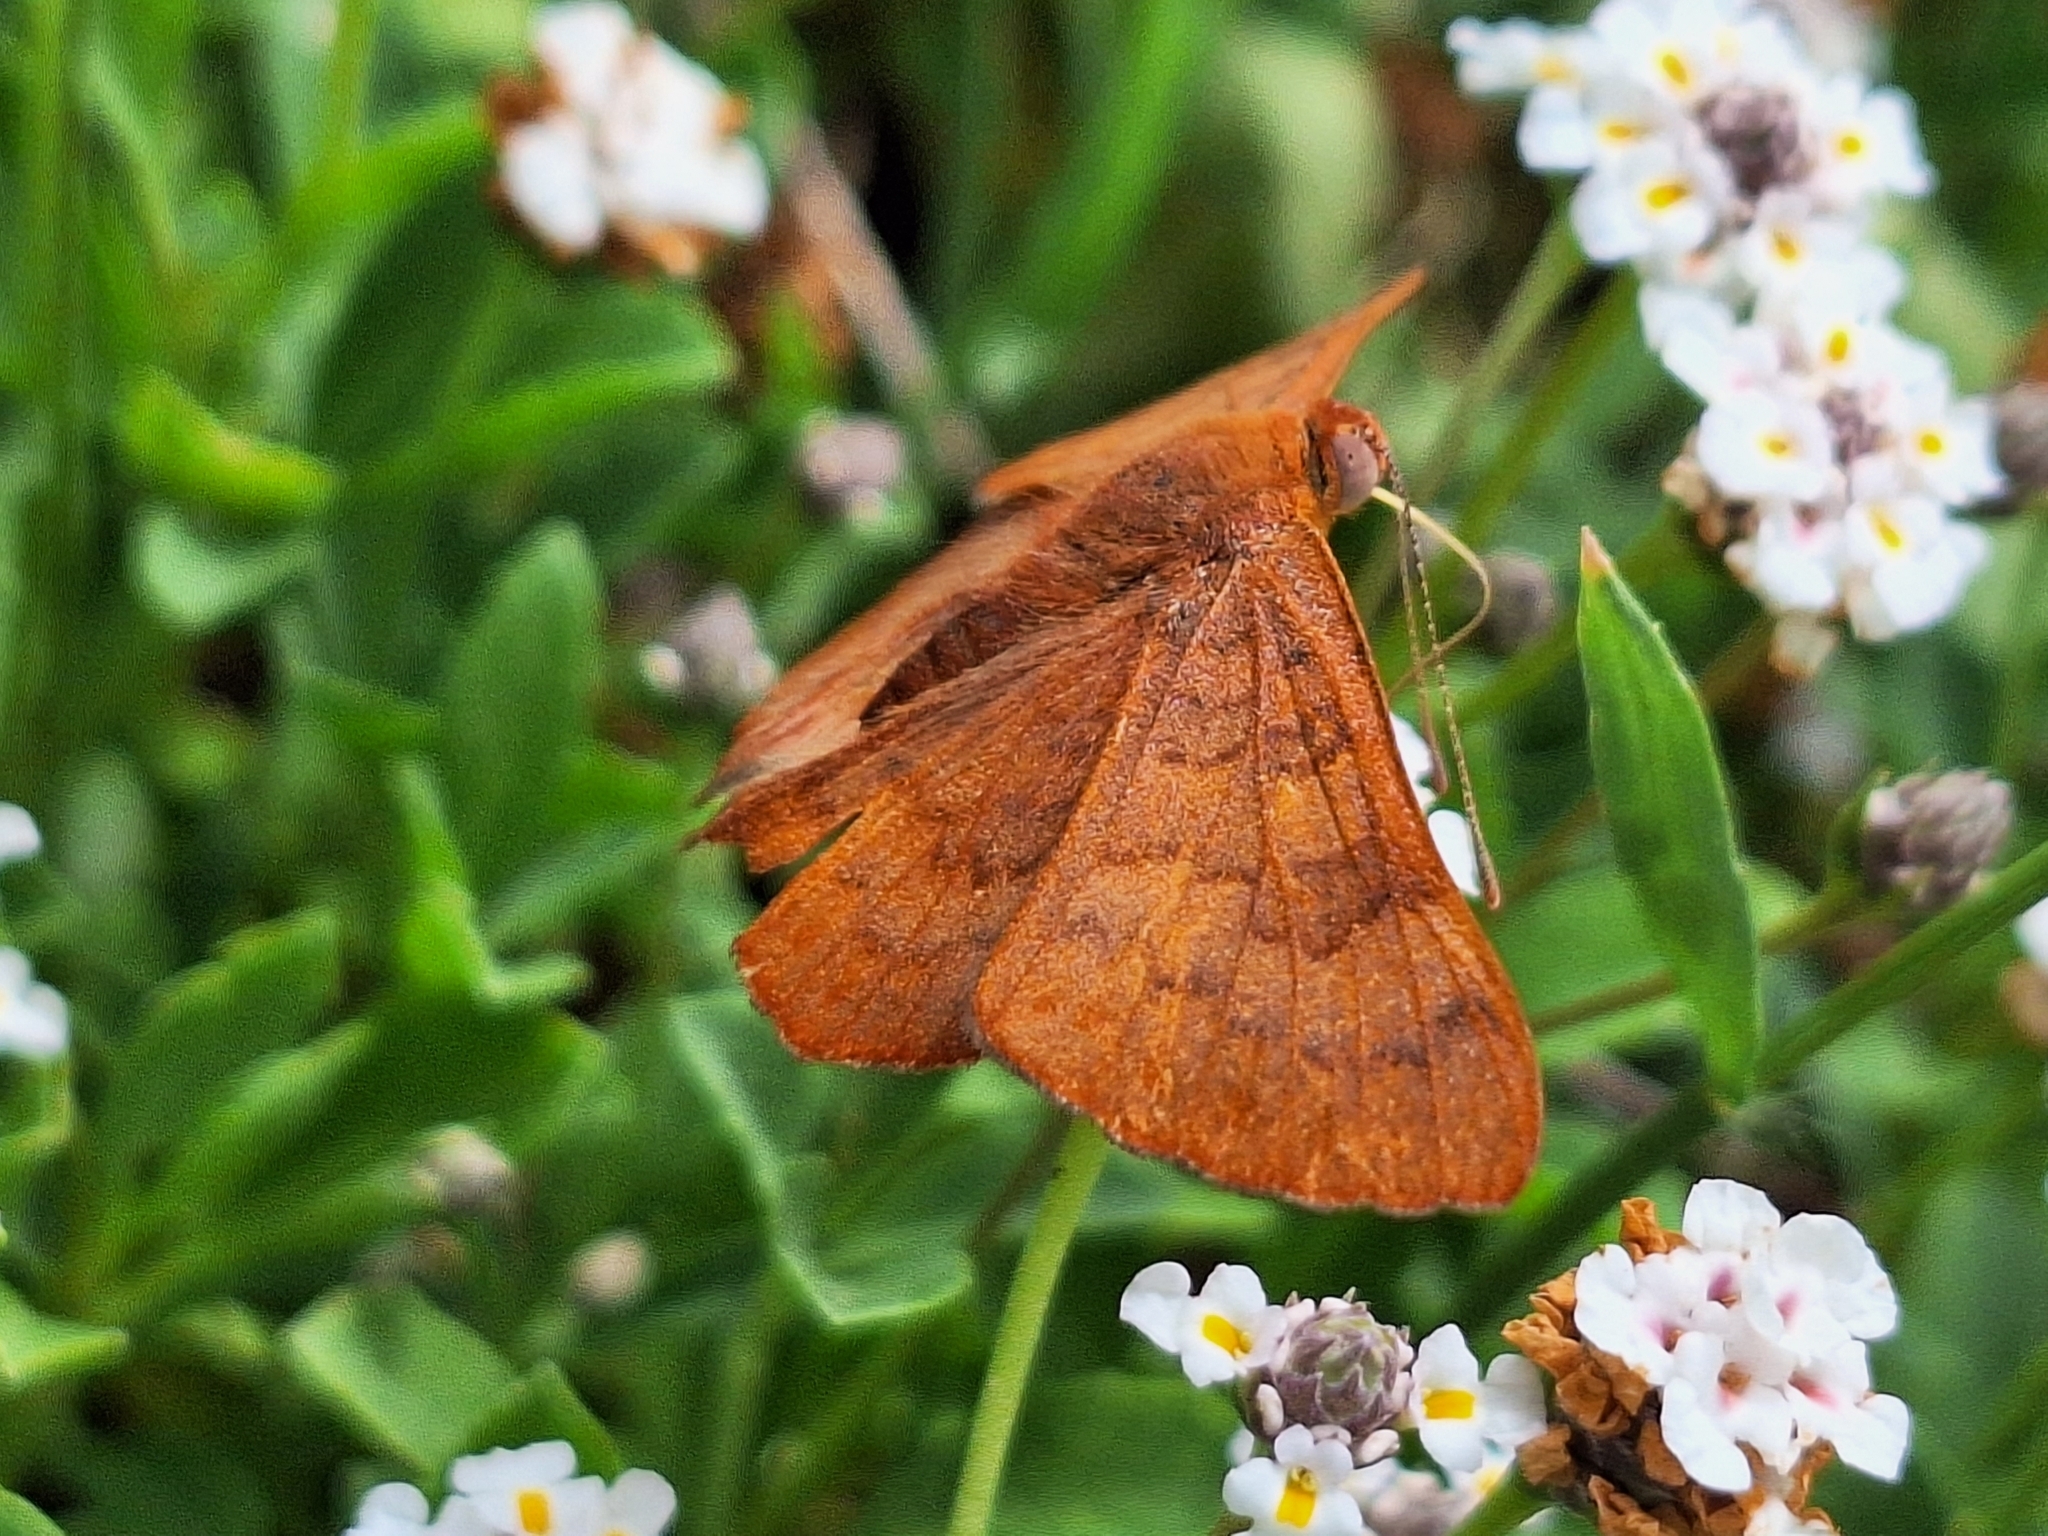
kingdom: Animalia
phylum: Arthropoda
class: Insecta
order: Lepidoptera
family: Lycaenidae
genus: Emesis
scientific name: Emesis russula
